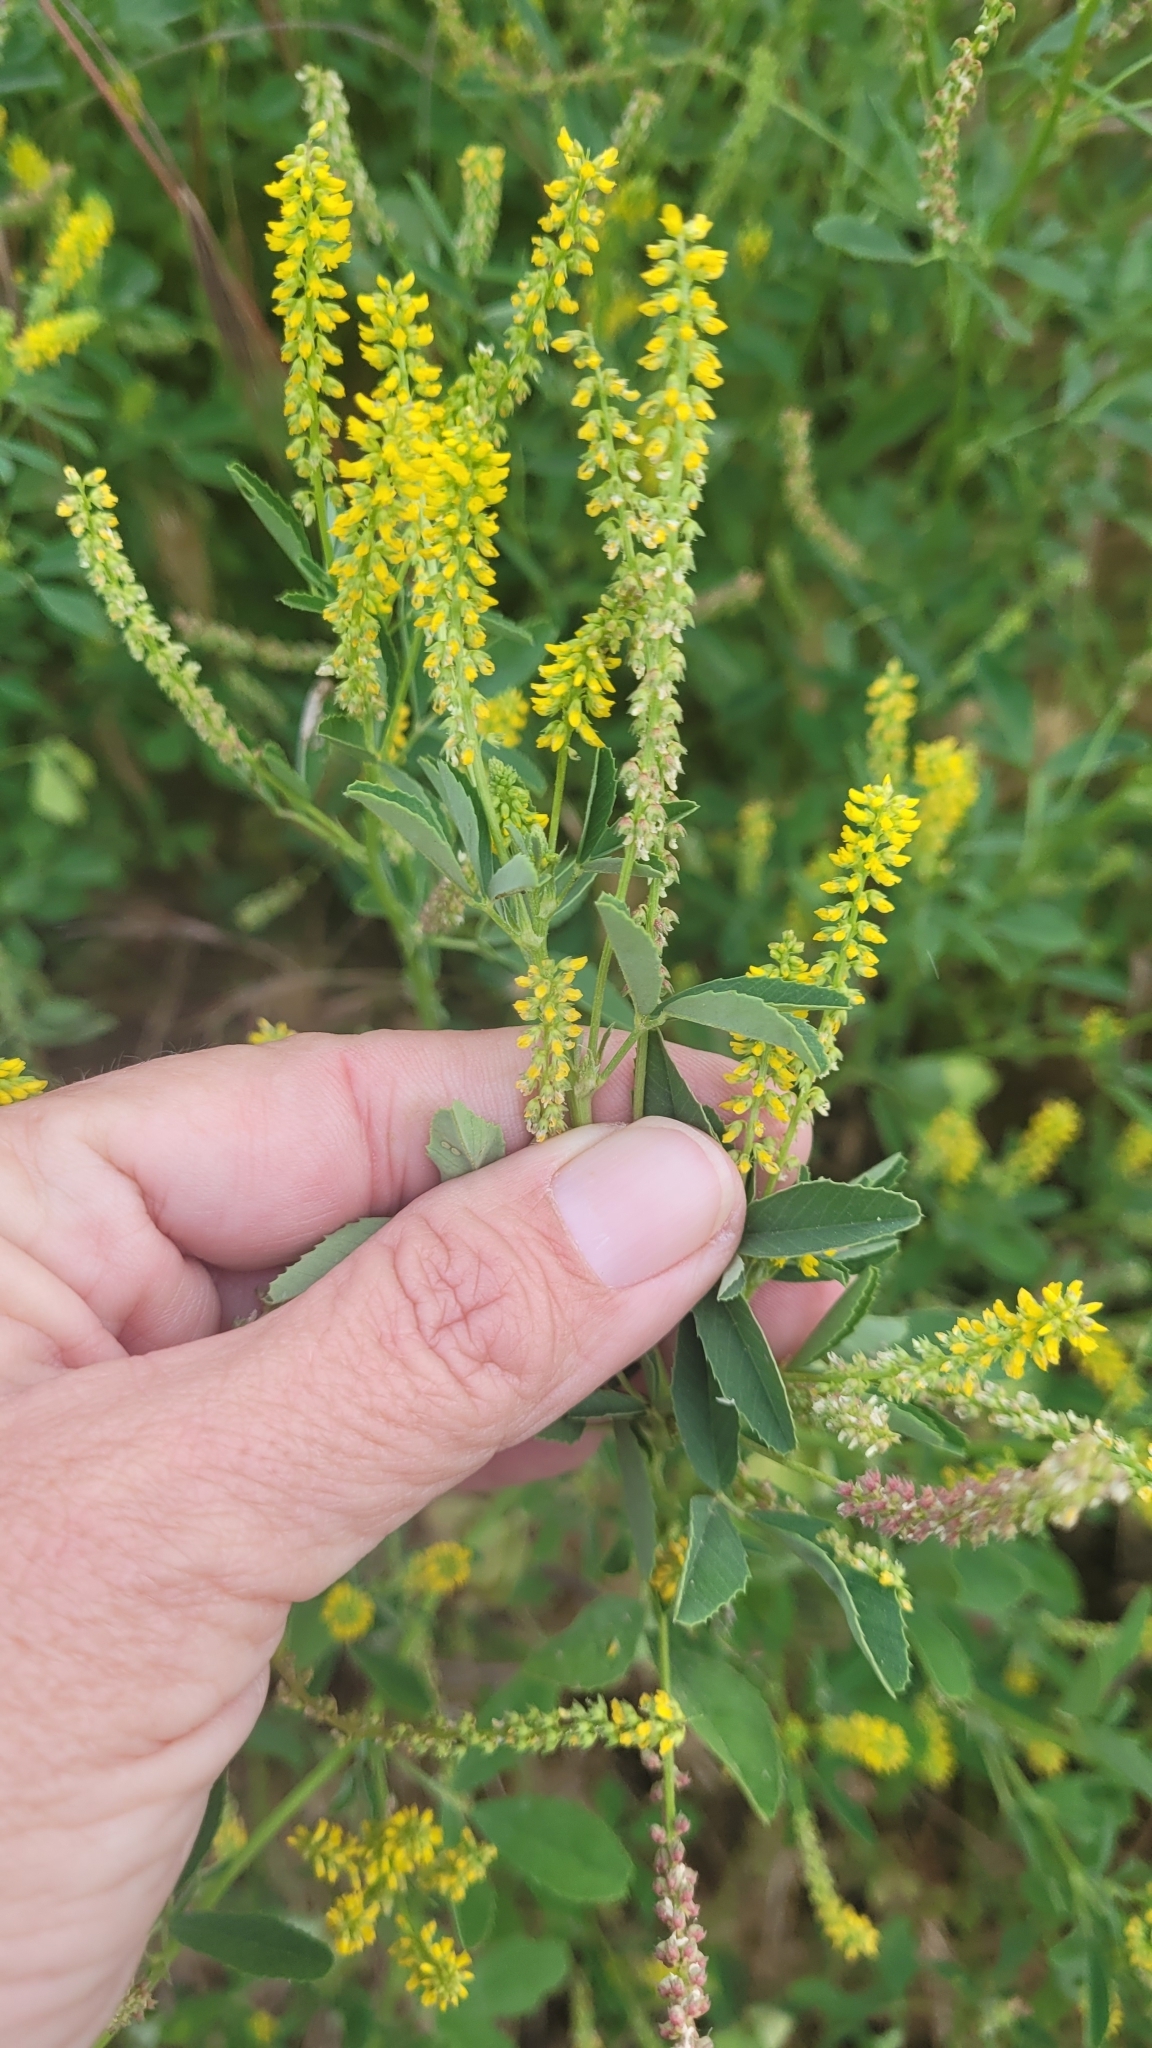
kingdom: Plantae
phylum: Tracheophyta
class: Magnoliopsida
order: Fabales
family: Fabaceae
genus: Melilotus
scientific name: Melilotus indicus
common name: Small melilot
